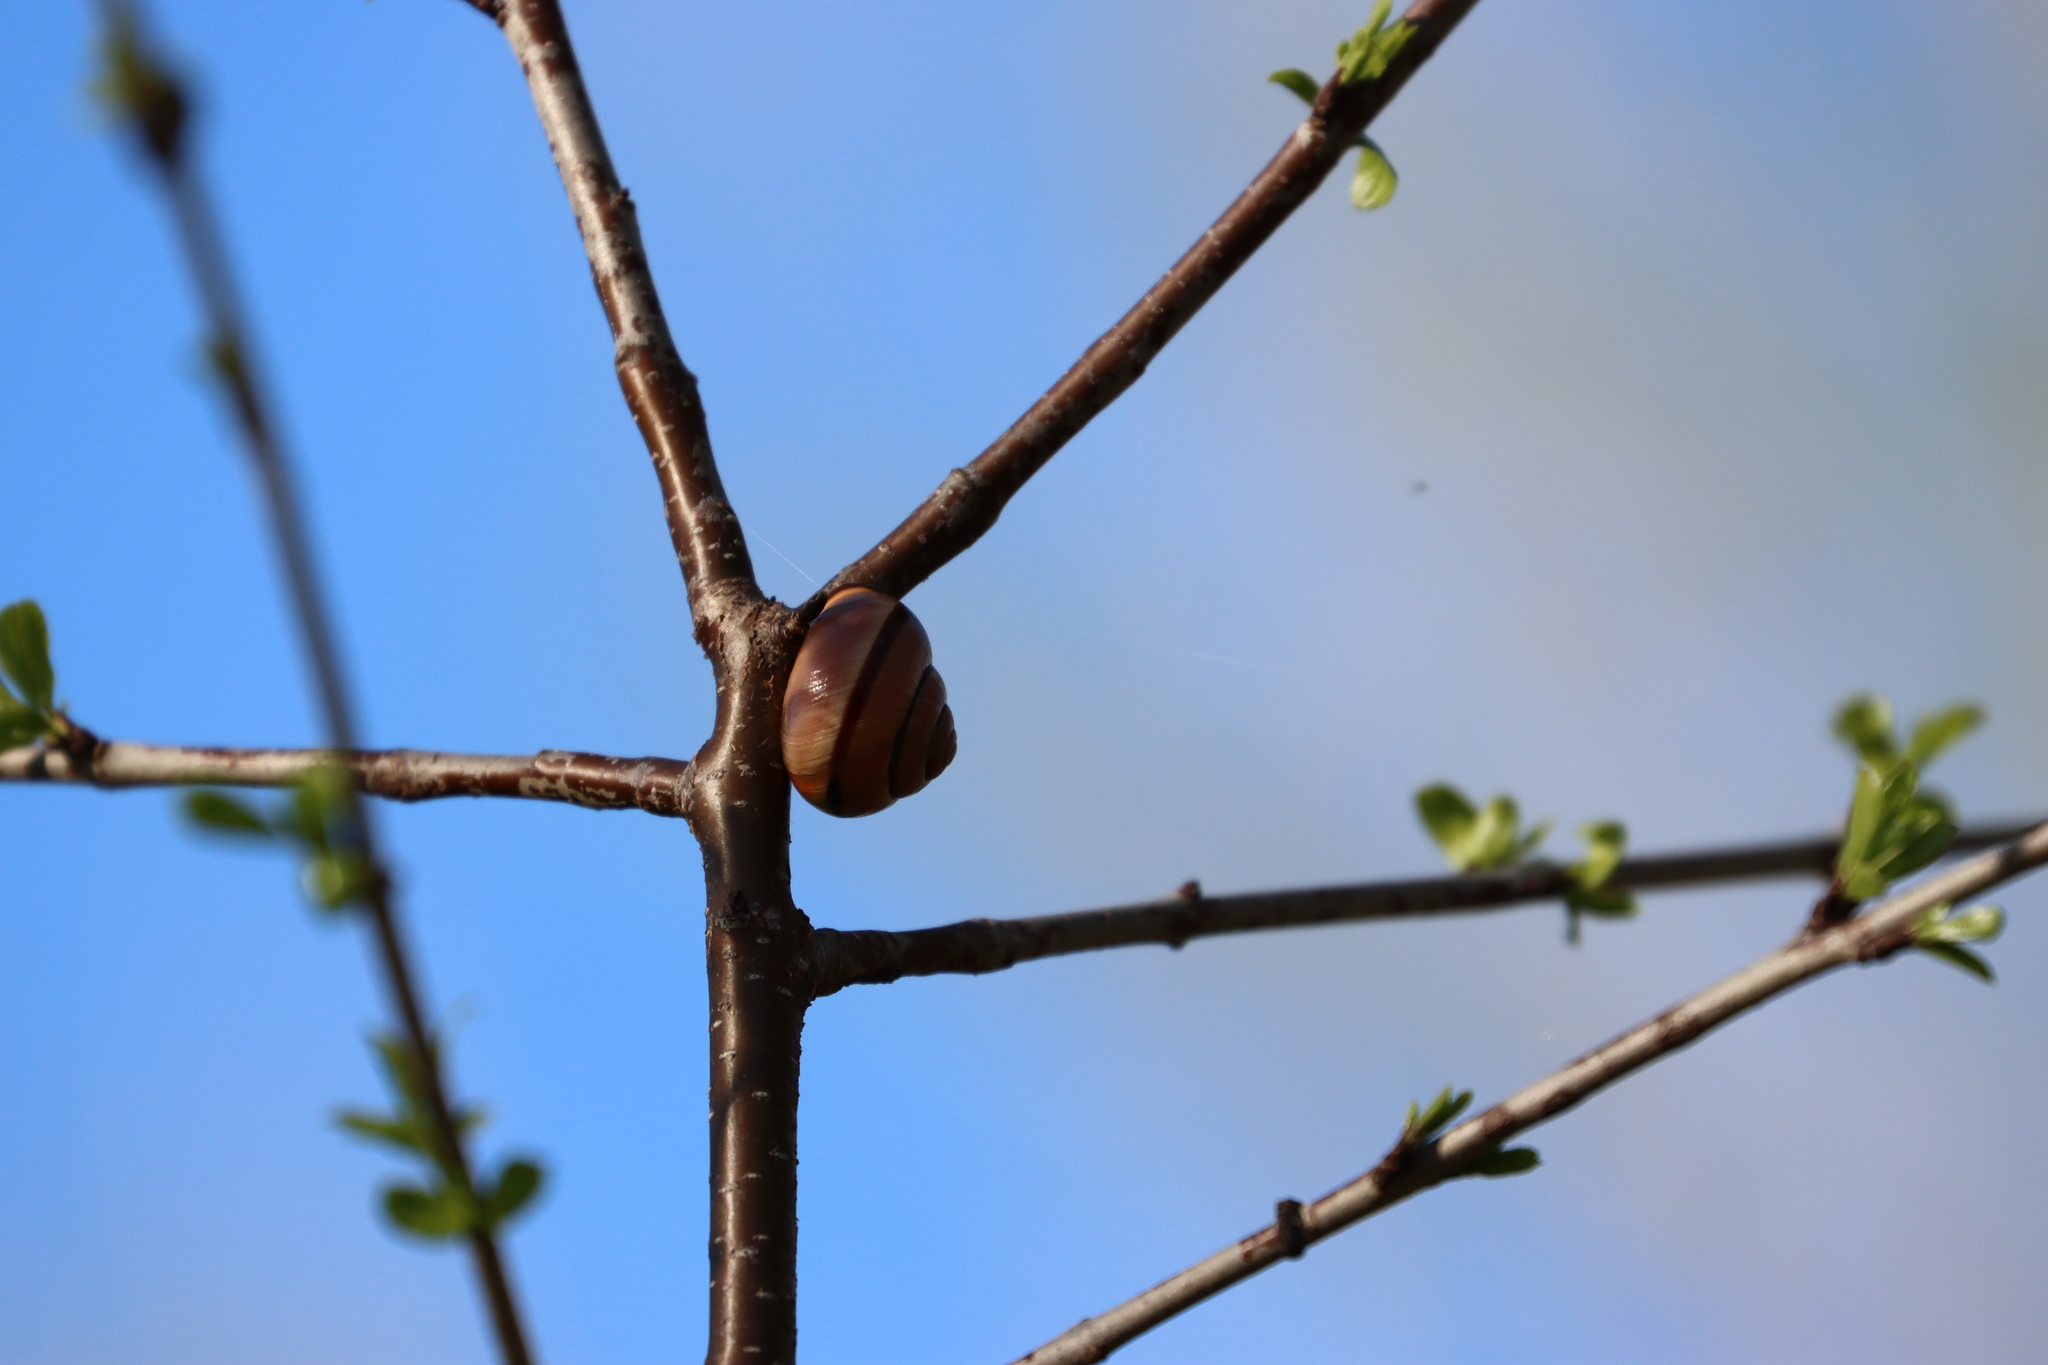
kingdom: Animalia
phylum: Mollusca
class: Gastropoda
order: Stylommatophora
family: Helicidae
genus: Cepaea
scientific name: Cepaea nemoralis
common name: Grovesnail
